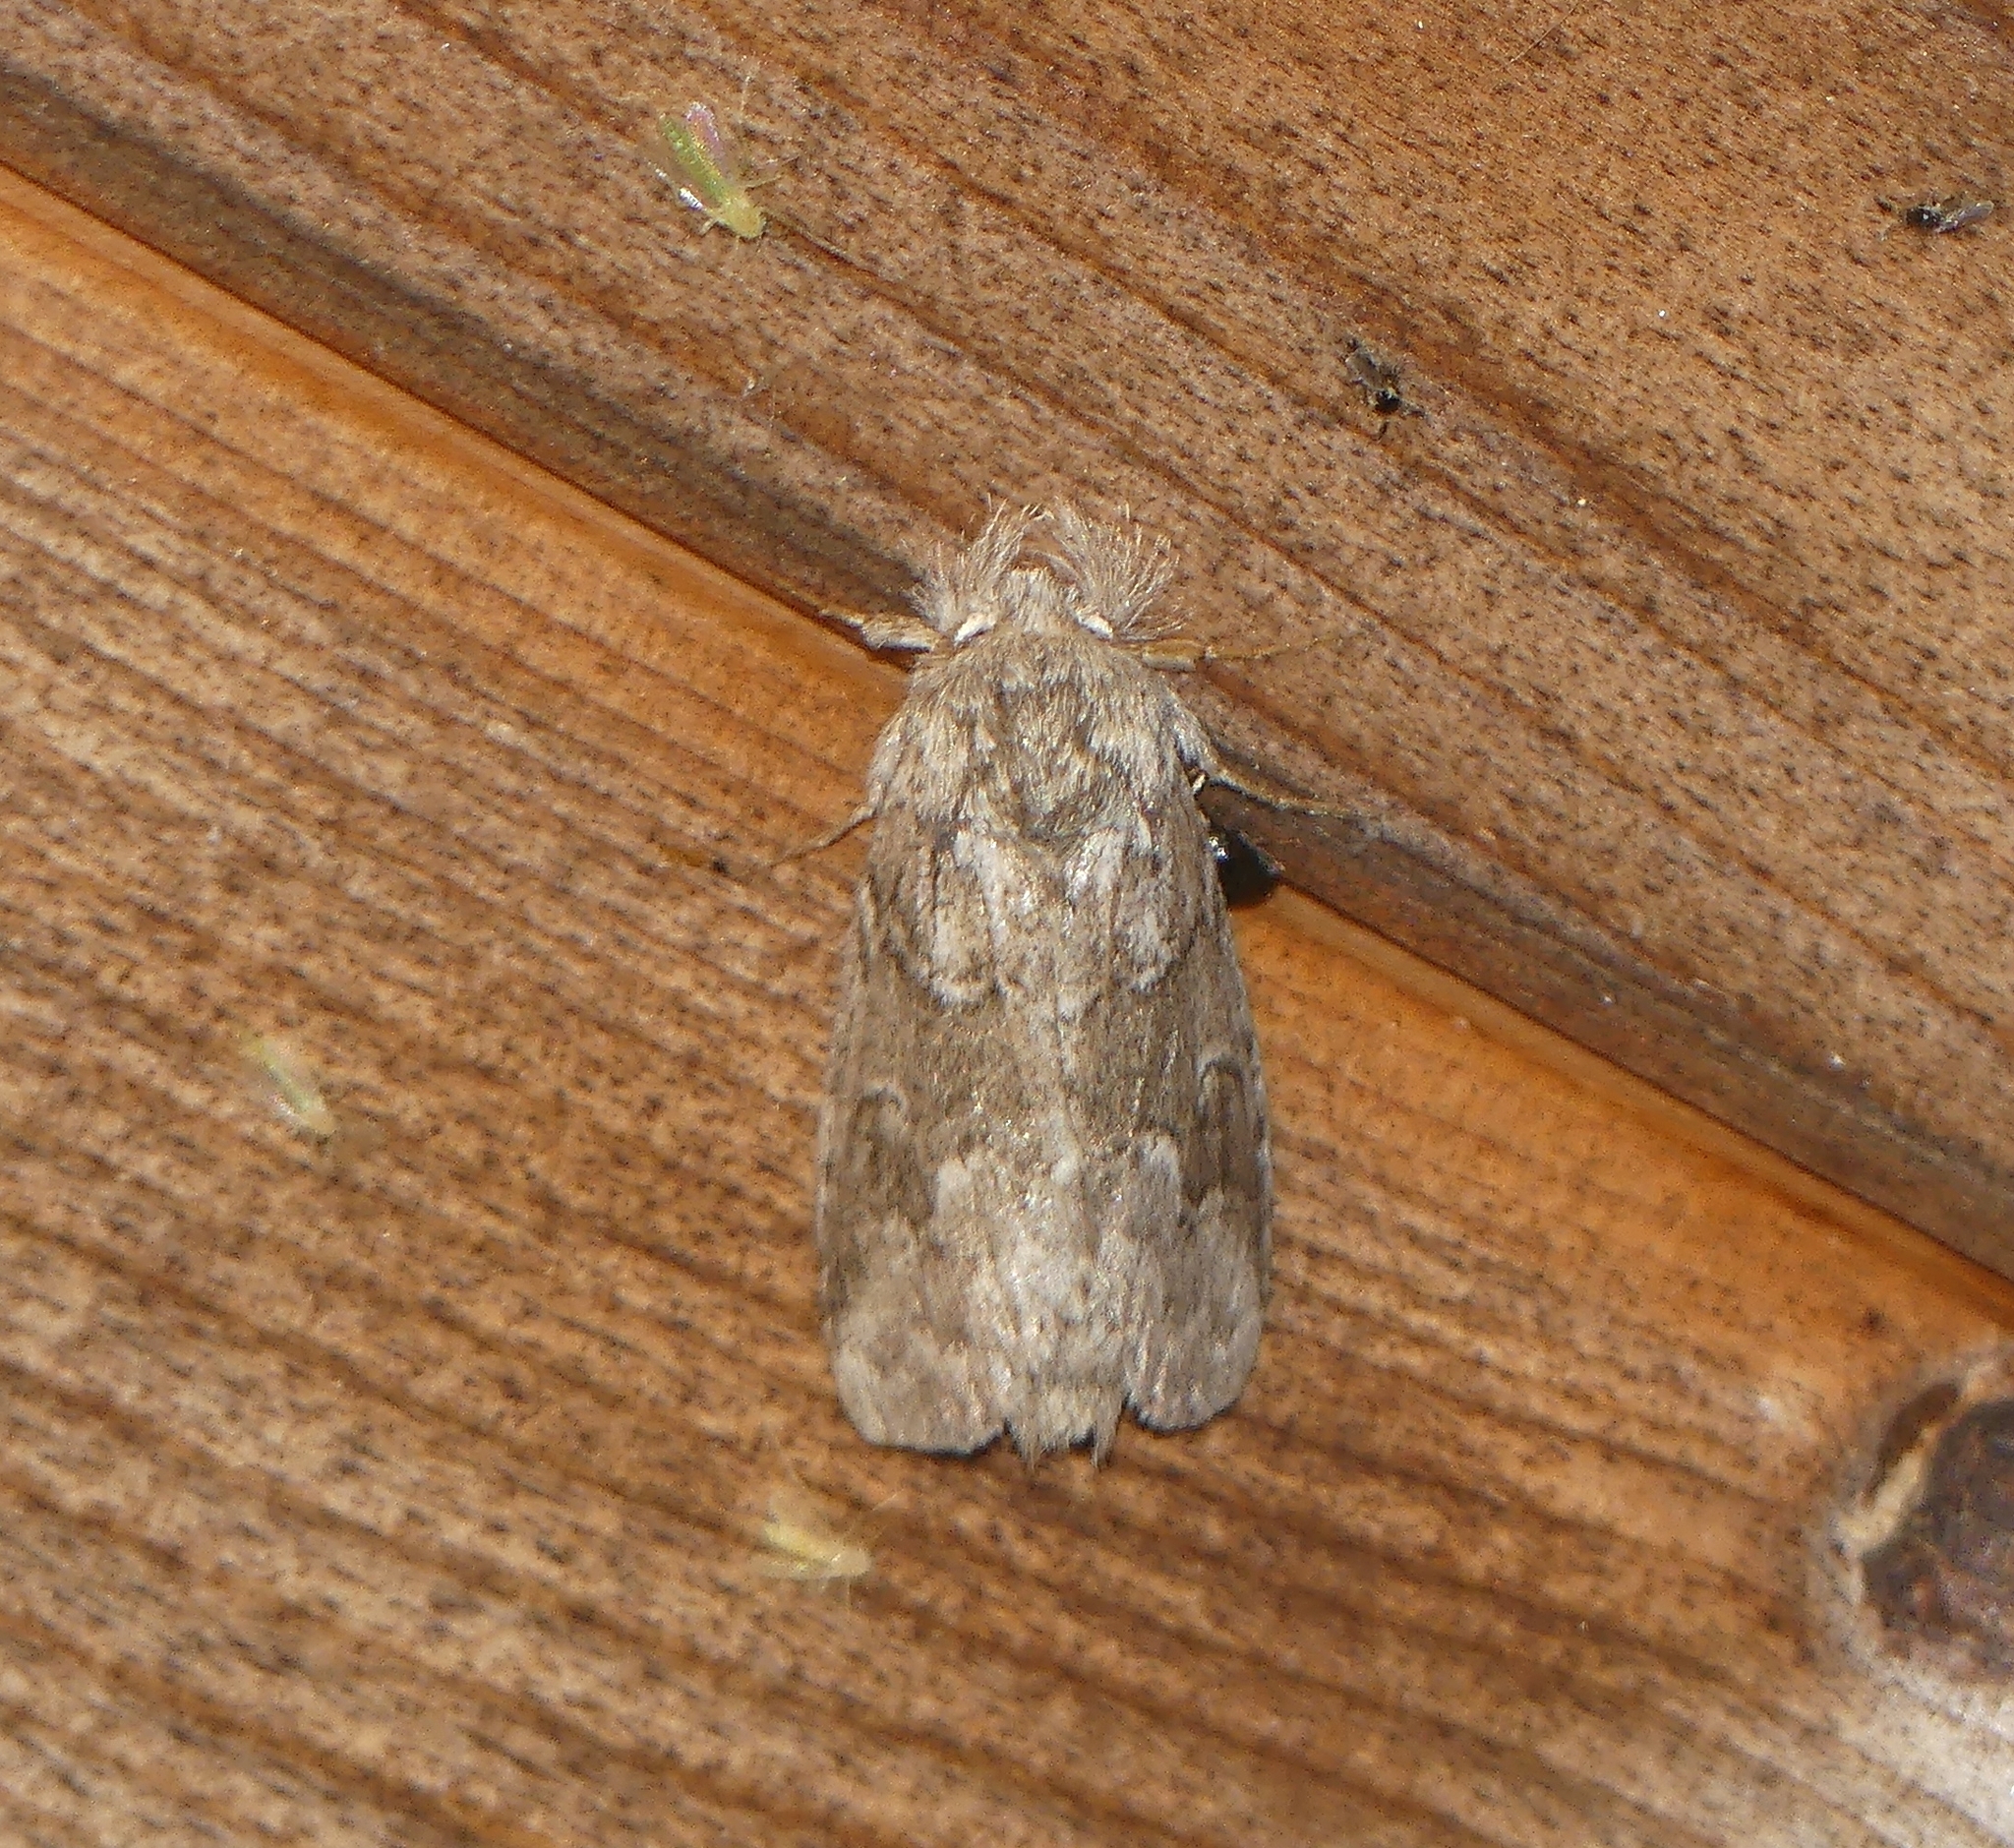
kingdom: Animalia
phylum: Arthropoda
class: Insecta
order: Lepidoptera
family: Notodontidae
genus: Lochmaeus
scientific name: Lochmaeus bilineata
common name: Double-lined prominent
